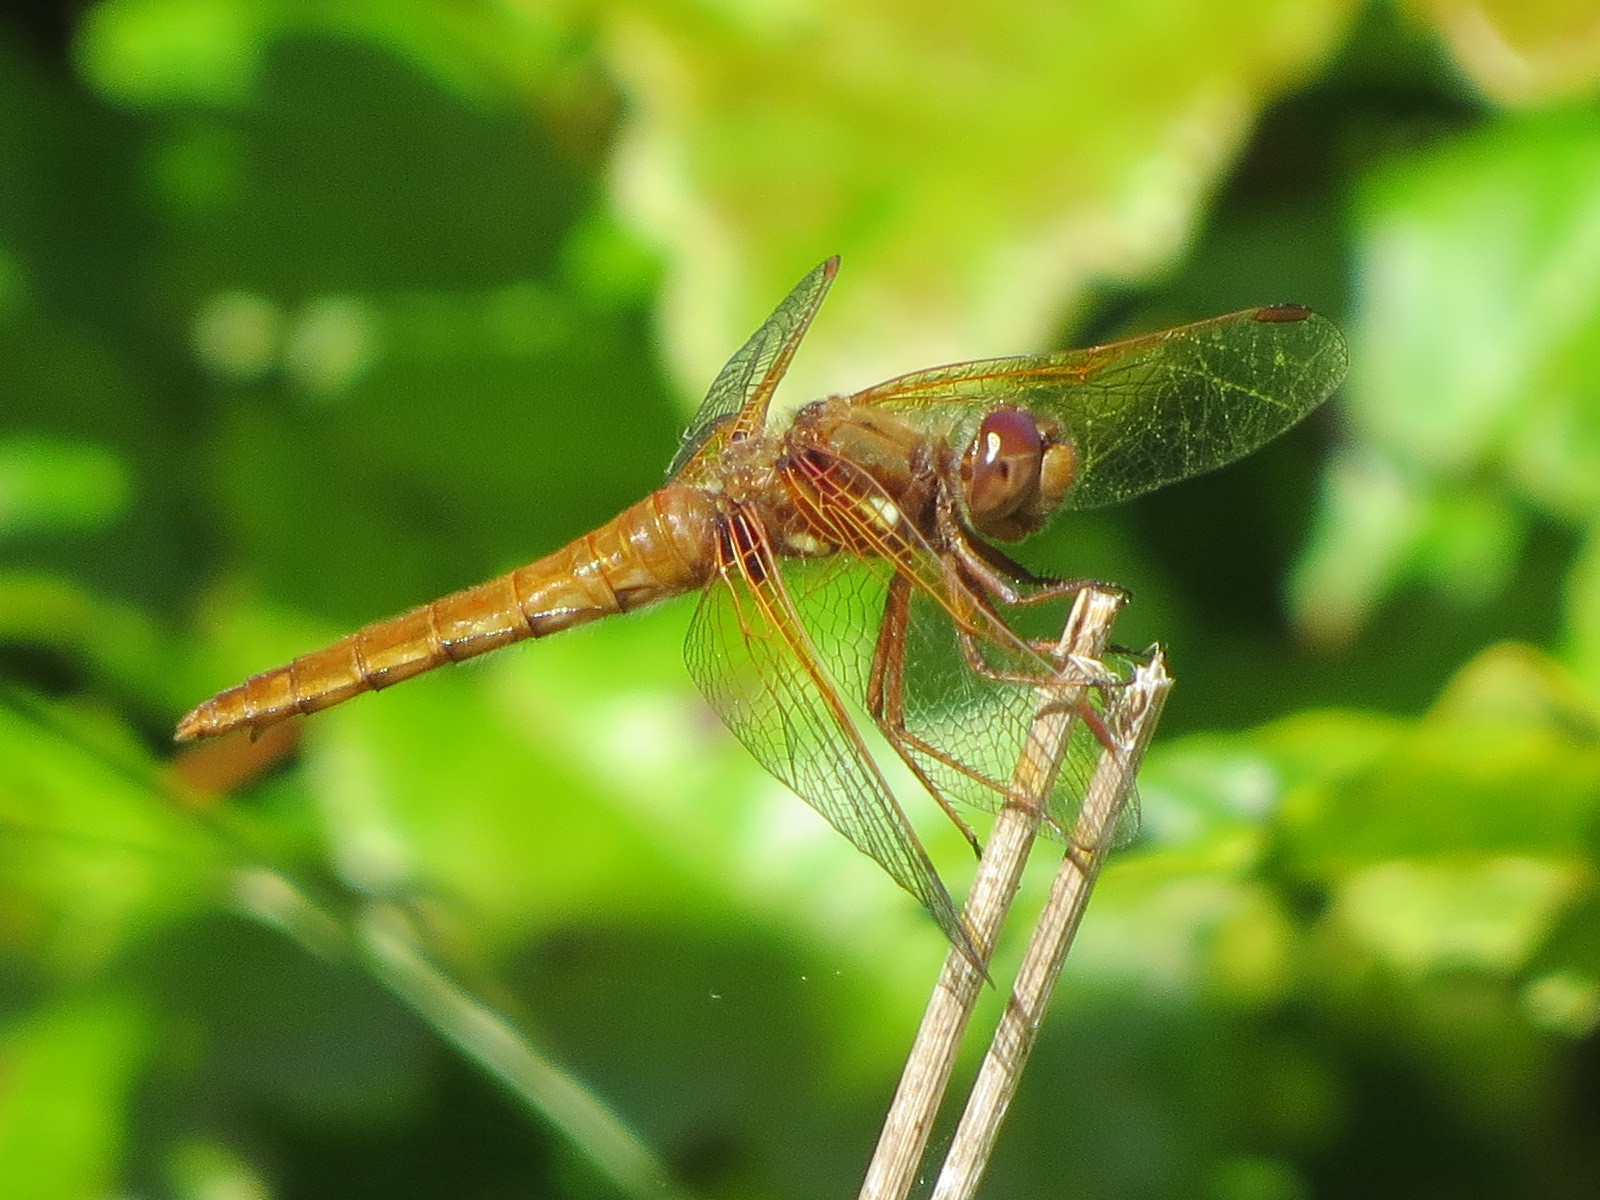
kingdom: Animalia
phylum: Arthropoda
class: Insecta
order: Odonata
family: Libellulidae
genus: Sympetrum
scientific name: Sympetrum illotum
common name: Cardinal meadowhawk
